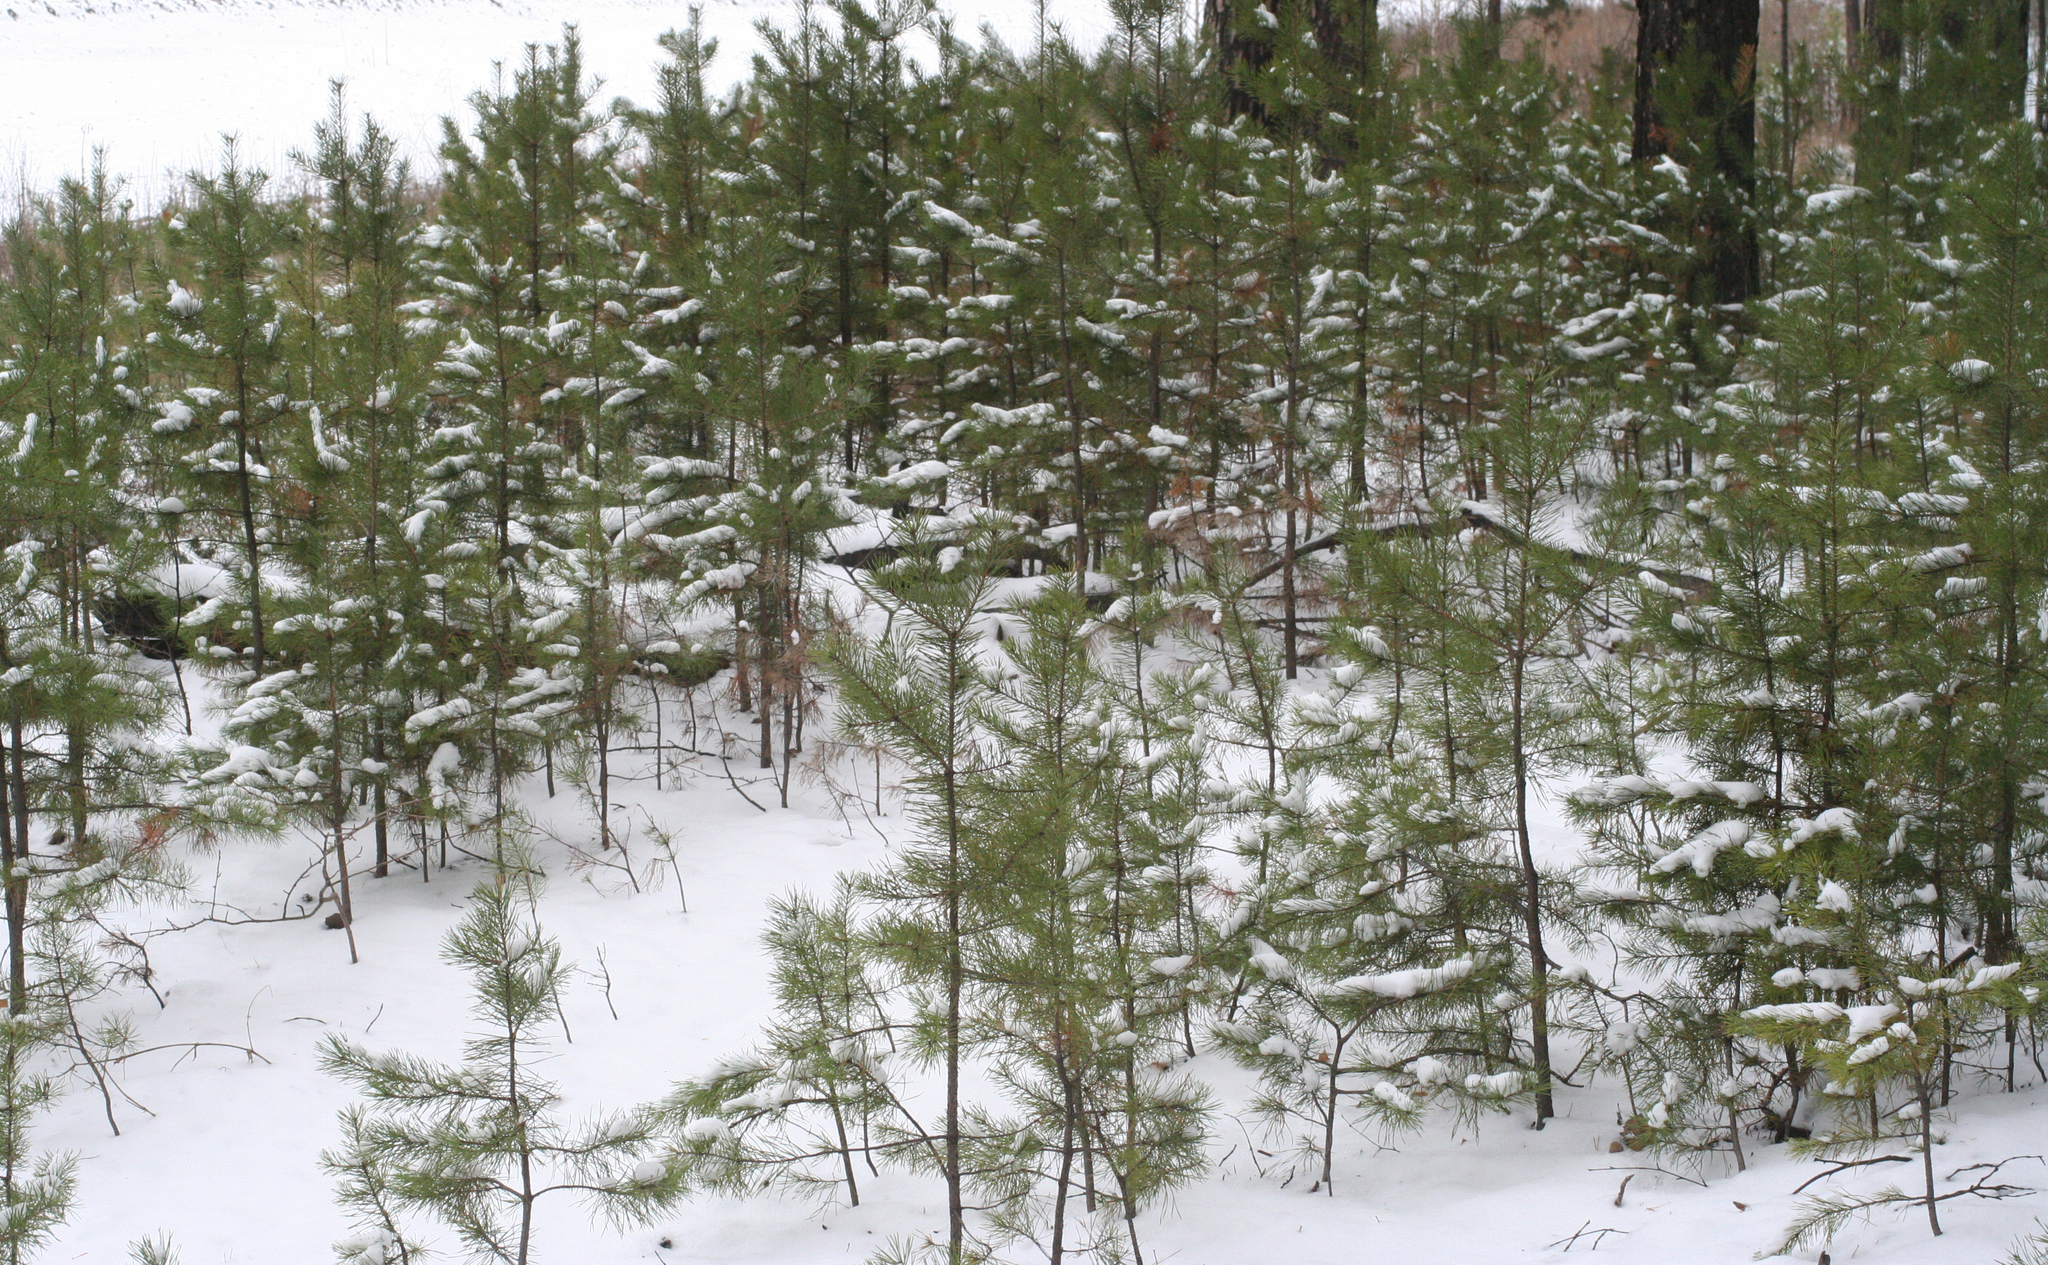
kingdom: Plantae
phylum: Tracheophyta
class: Pinopsida
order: Pinales
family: Pinaceae
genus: Pinus
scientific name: Pinus sylvestris
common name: Scots pine
